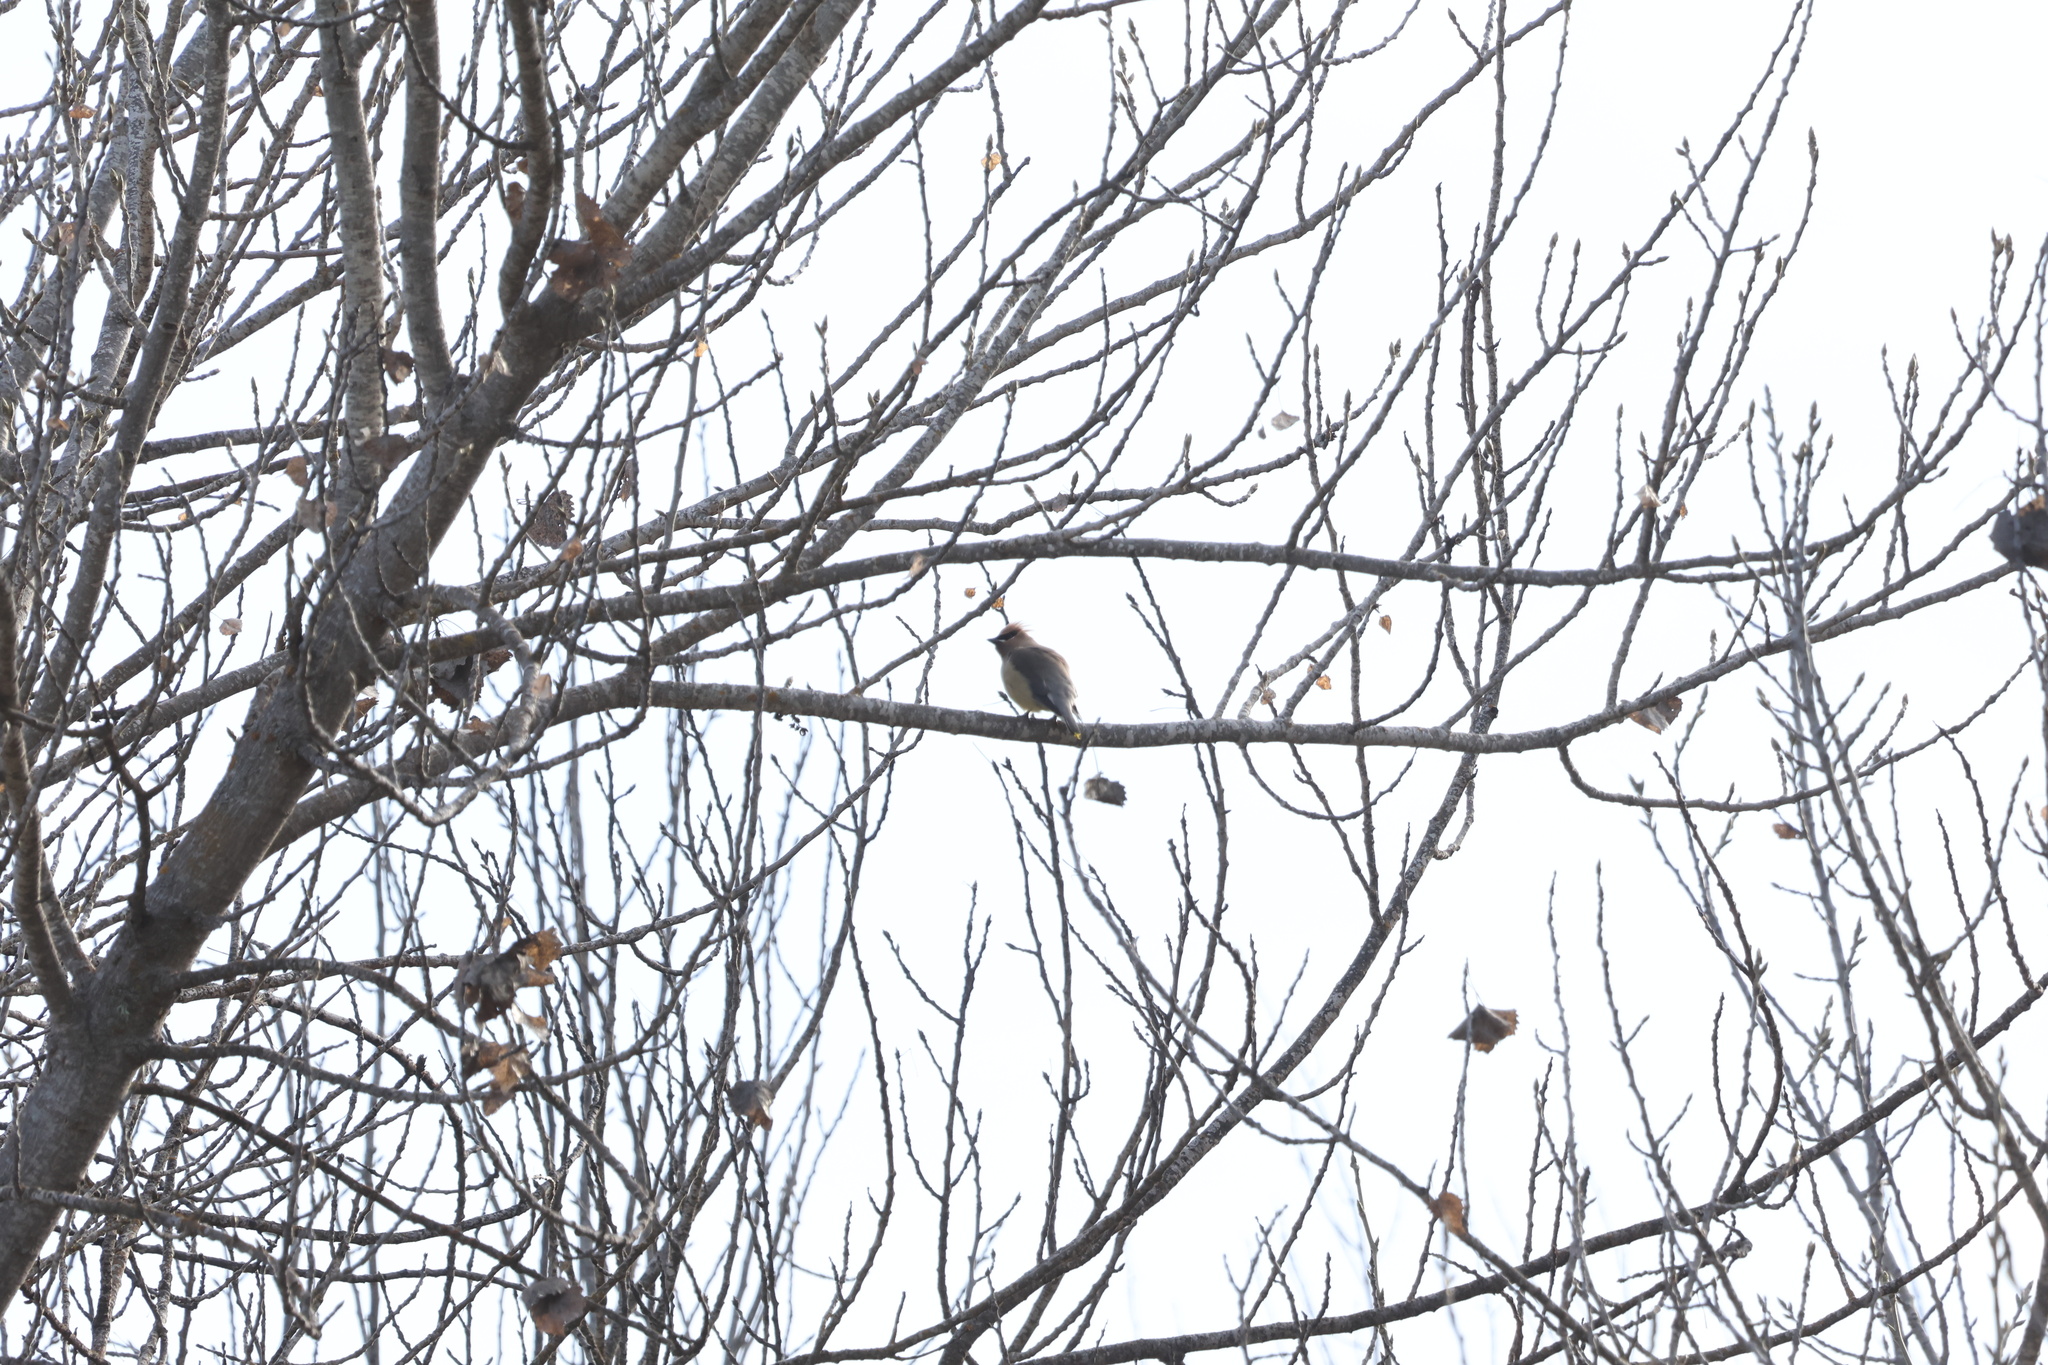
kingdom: Animalia
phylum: Chordata
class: Aves
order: Passeriformes
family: Bombycillidae
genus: Bombycilla
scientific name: Bombycilla cedrorum
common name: Cedar waxwing
